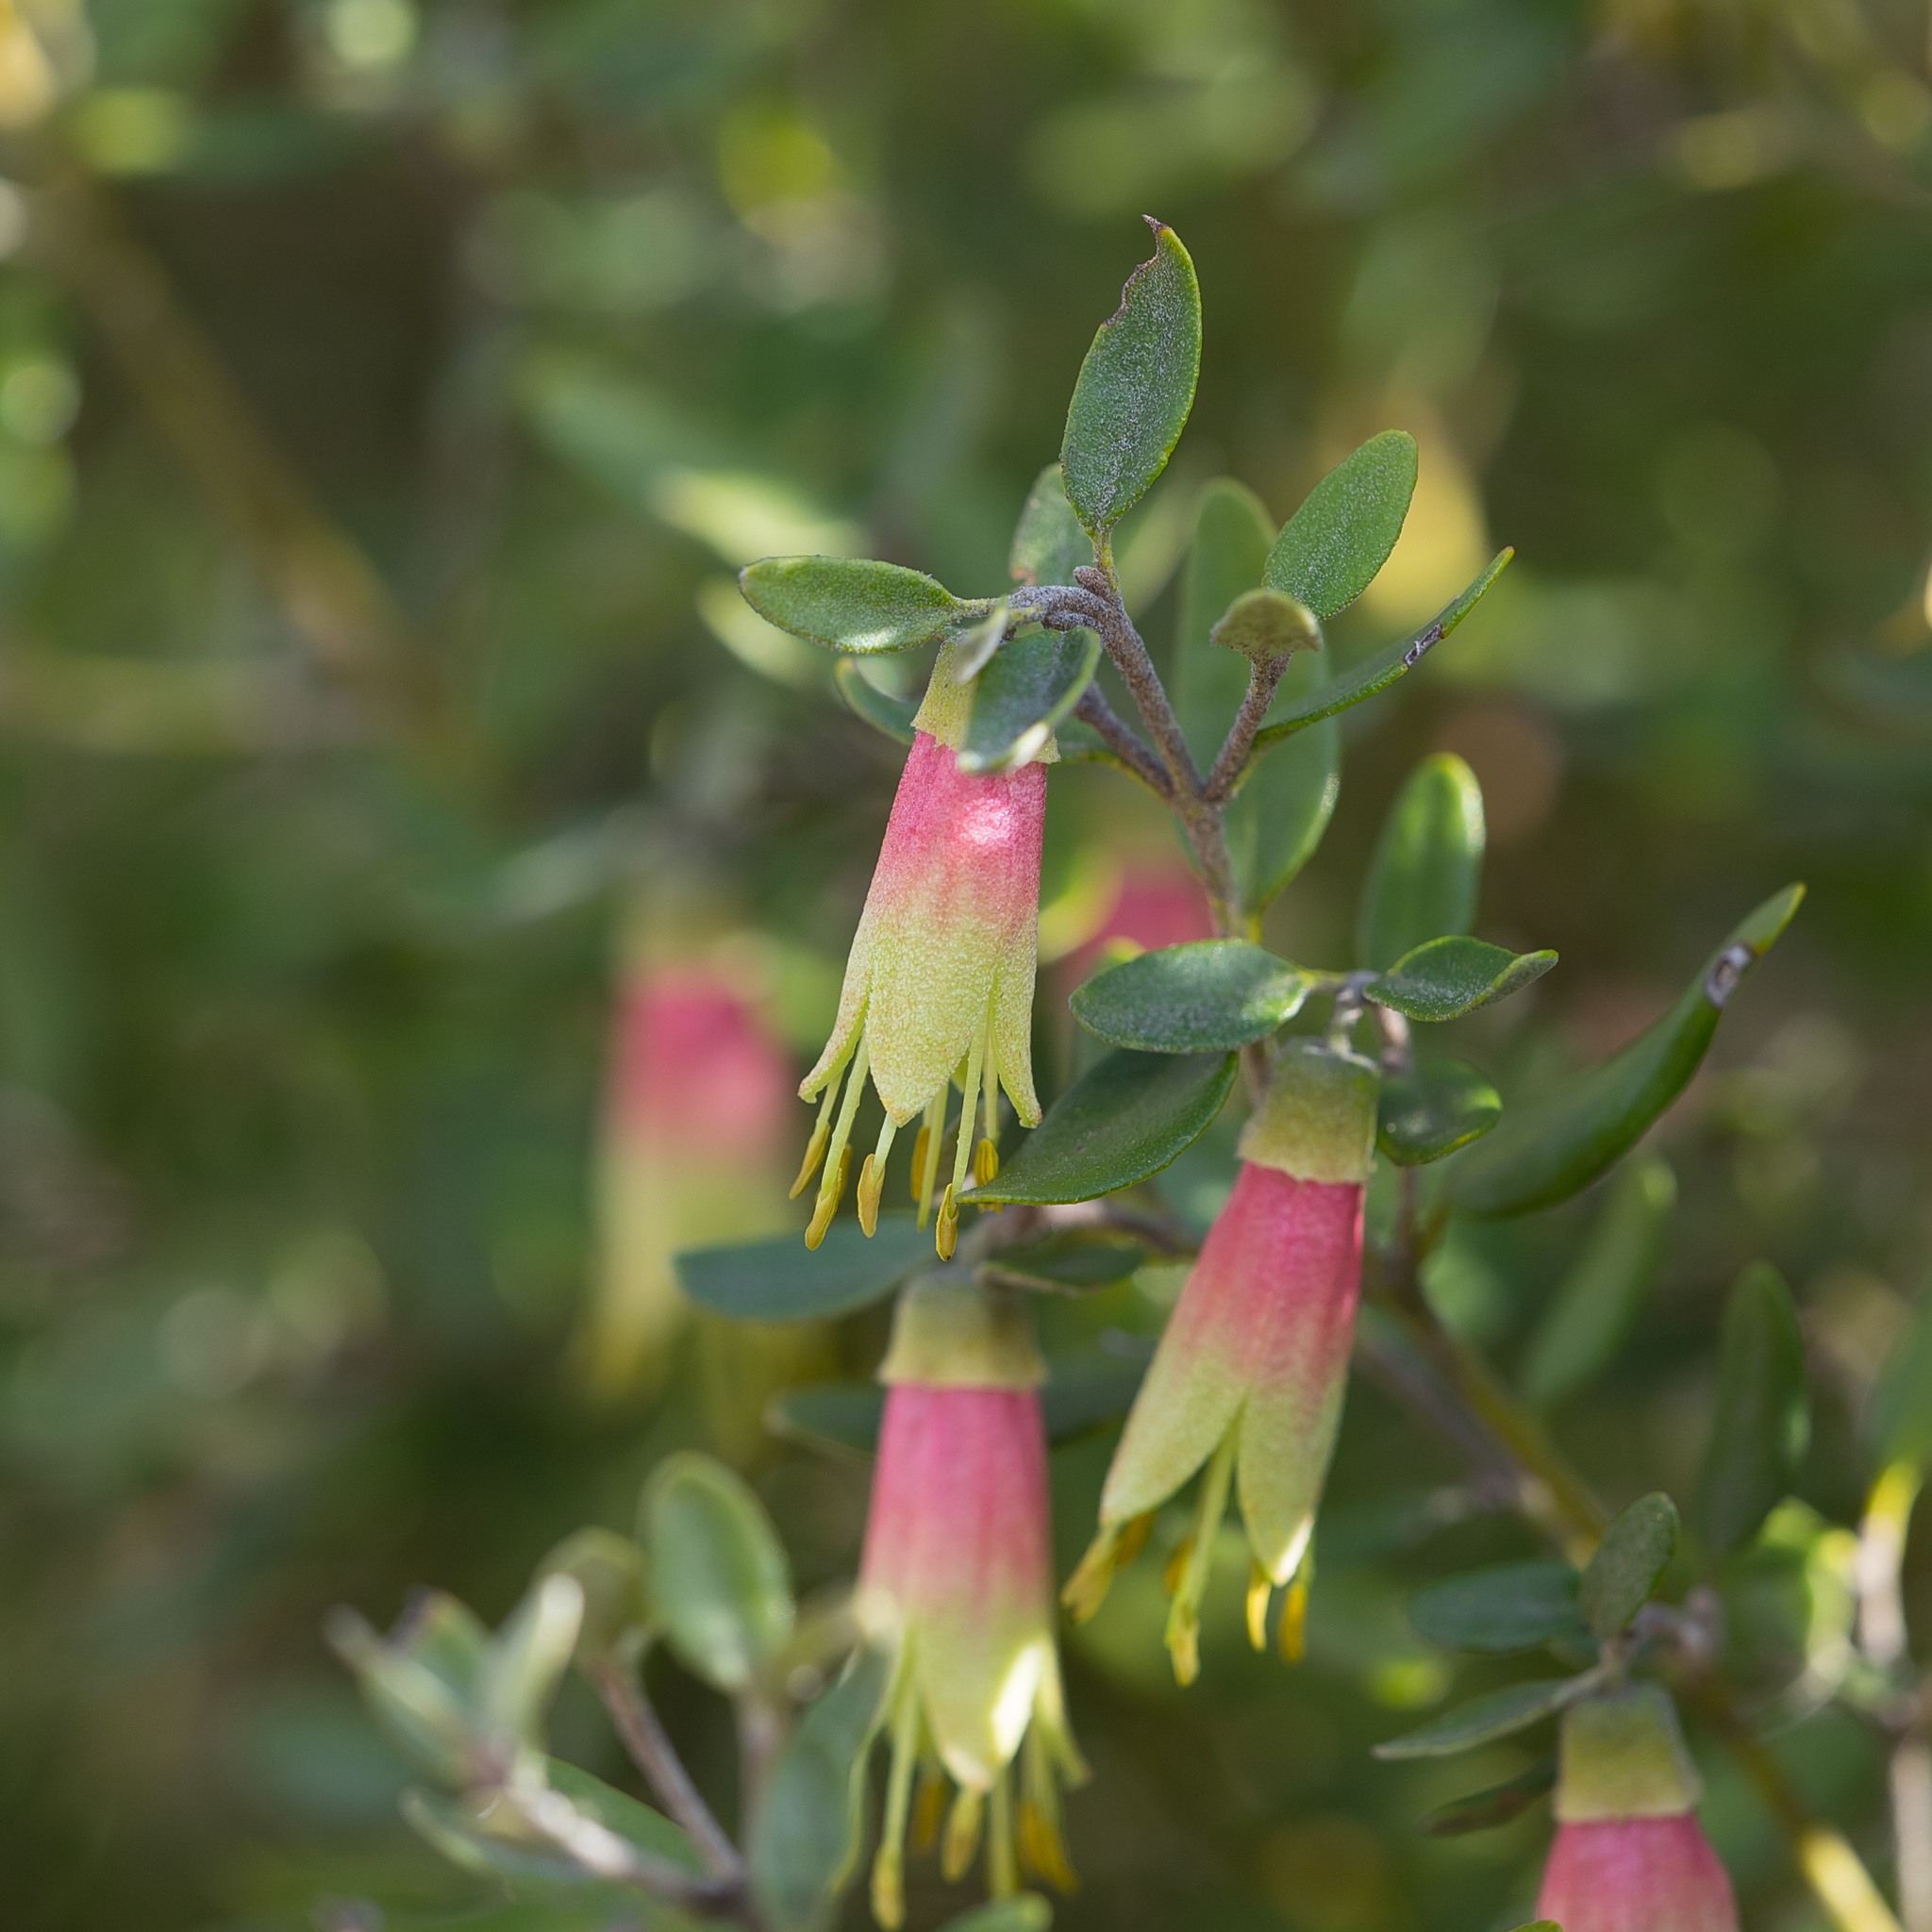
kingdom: Plantae
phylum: Tracheophyta
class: Magnoliopsida
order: Sapindales
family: Rutaceae
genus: Correa
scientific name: Correa glabra
